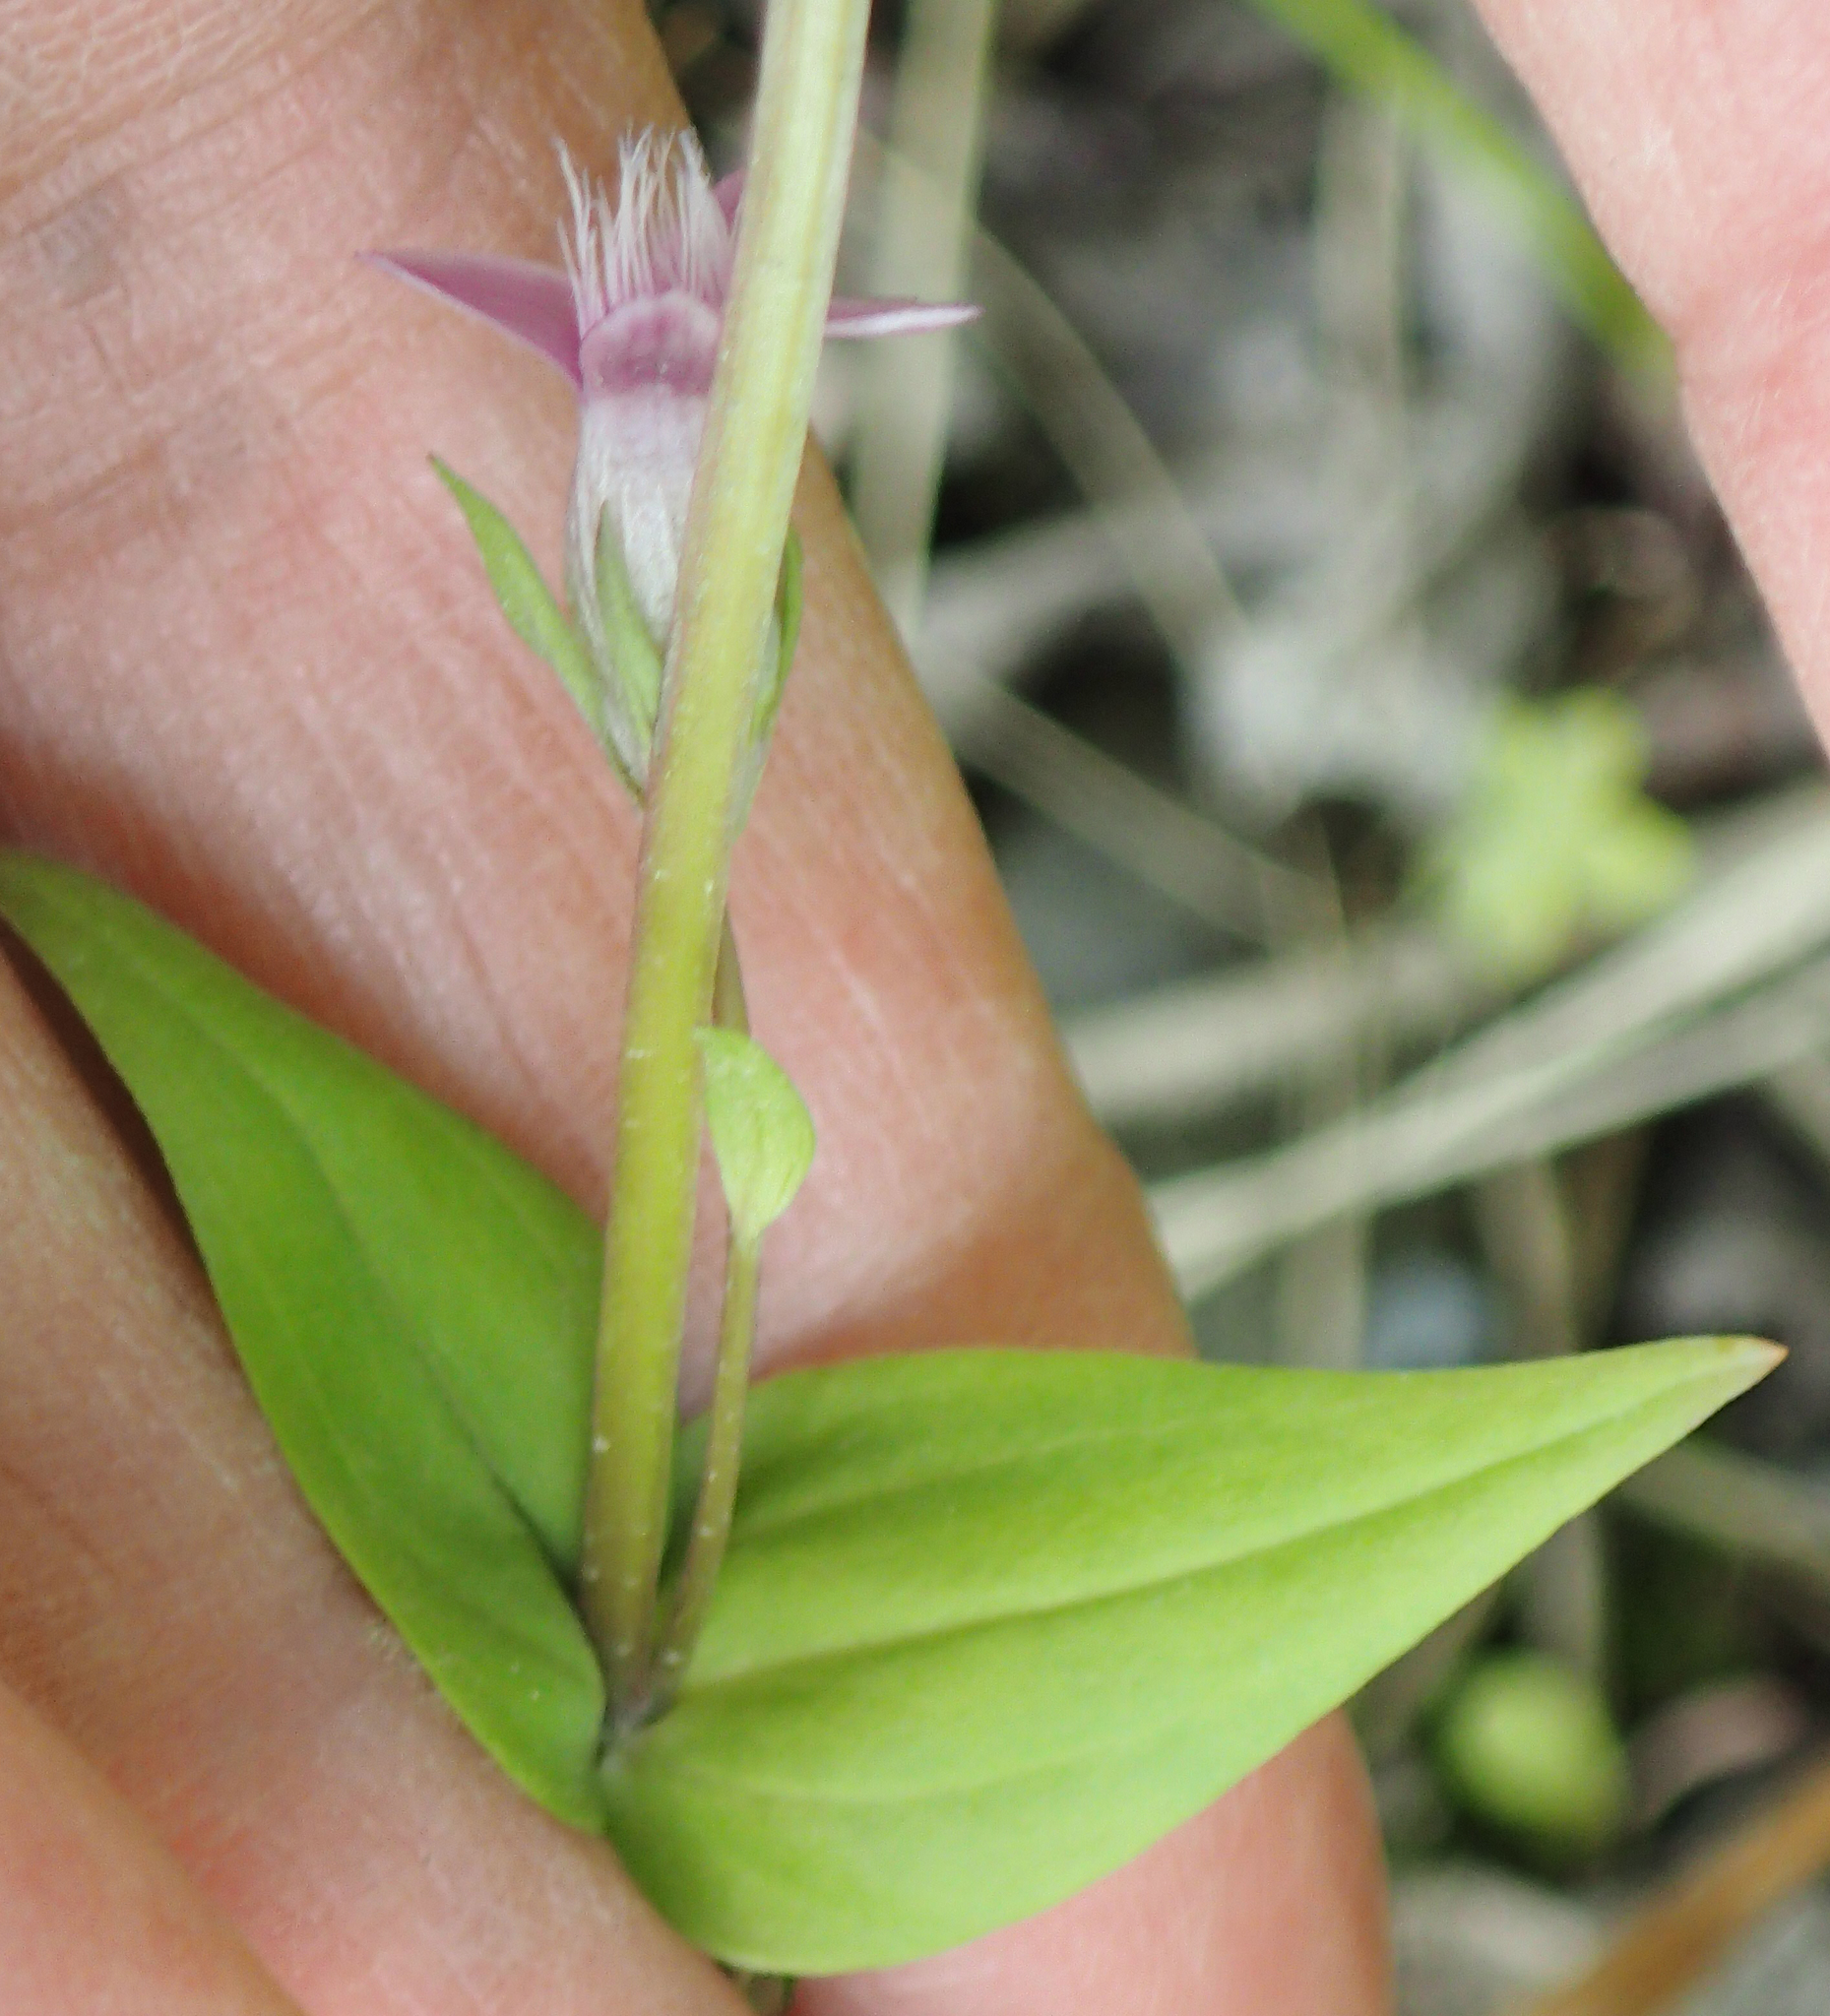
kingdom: Plantae
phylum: Tracheophyta
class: Magnoliopsida
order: Gentianales
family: Gentianaceae
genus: Gentianella
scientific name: Gentianella amarella
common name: Autumn gentian
